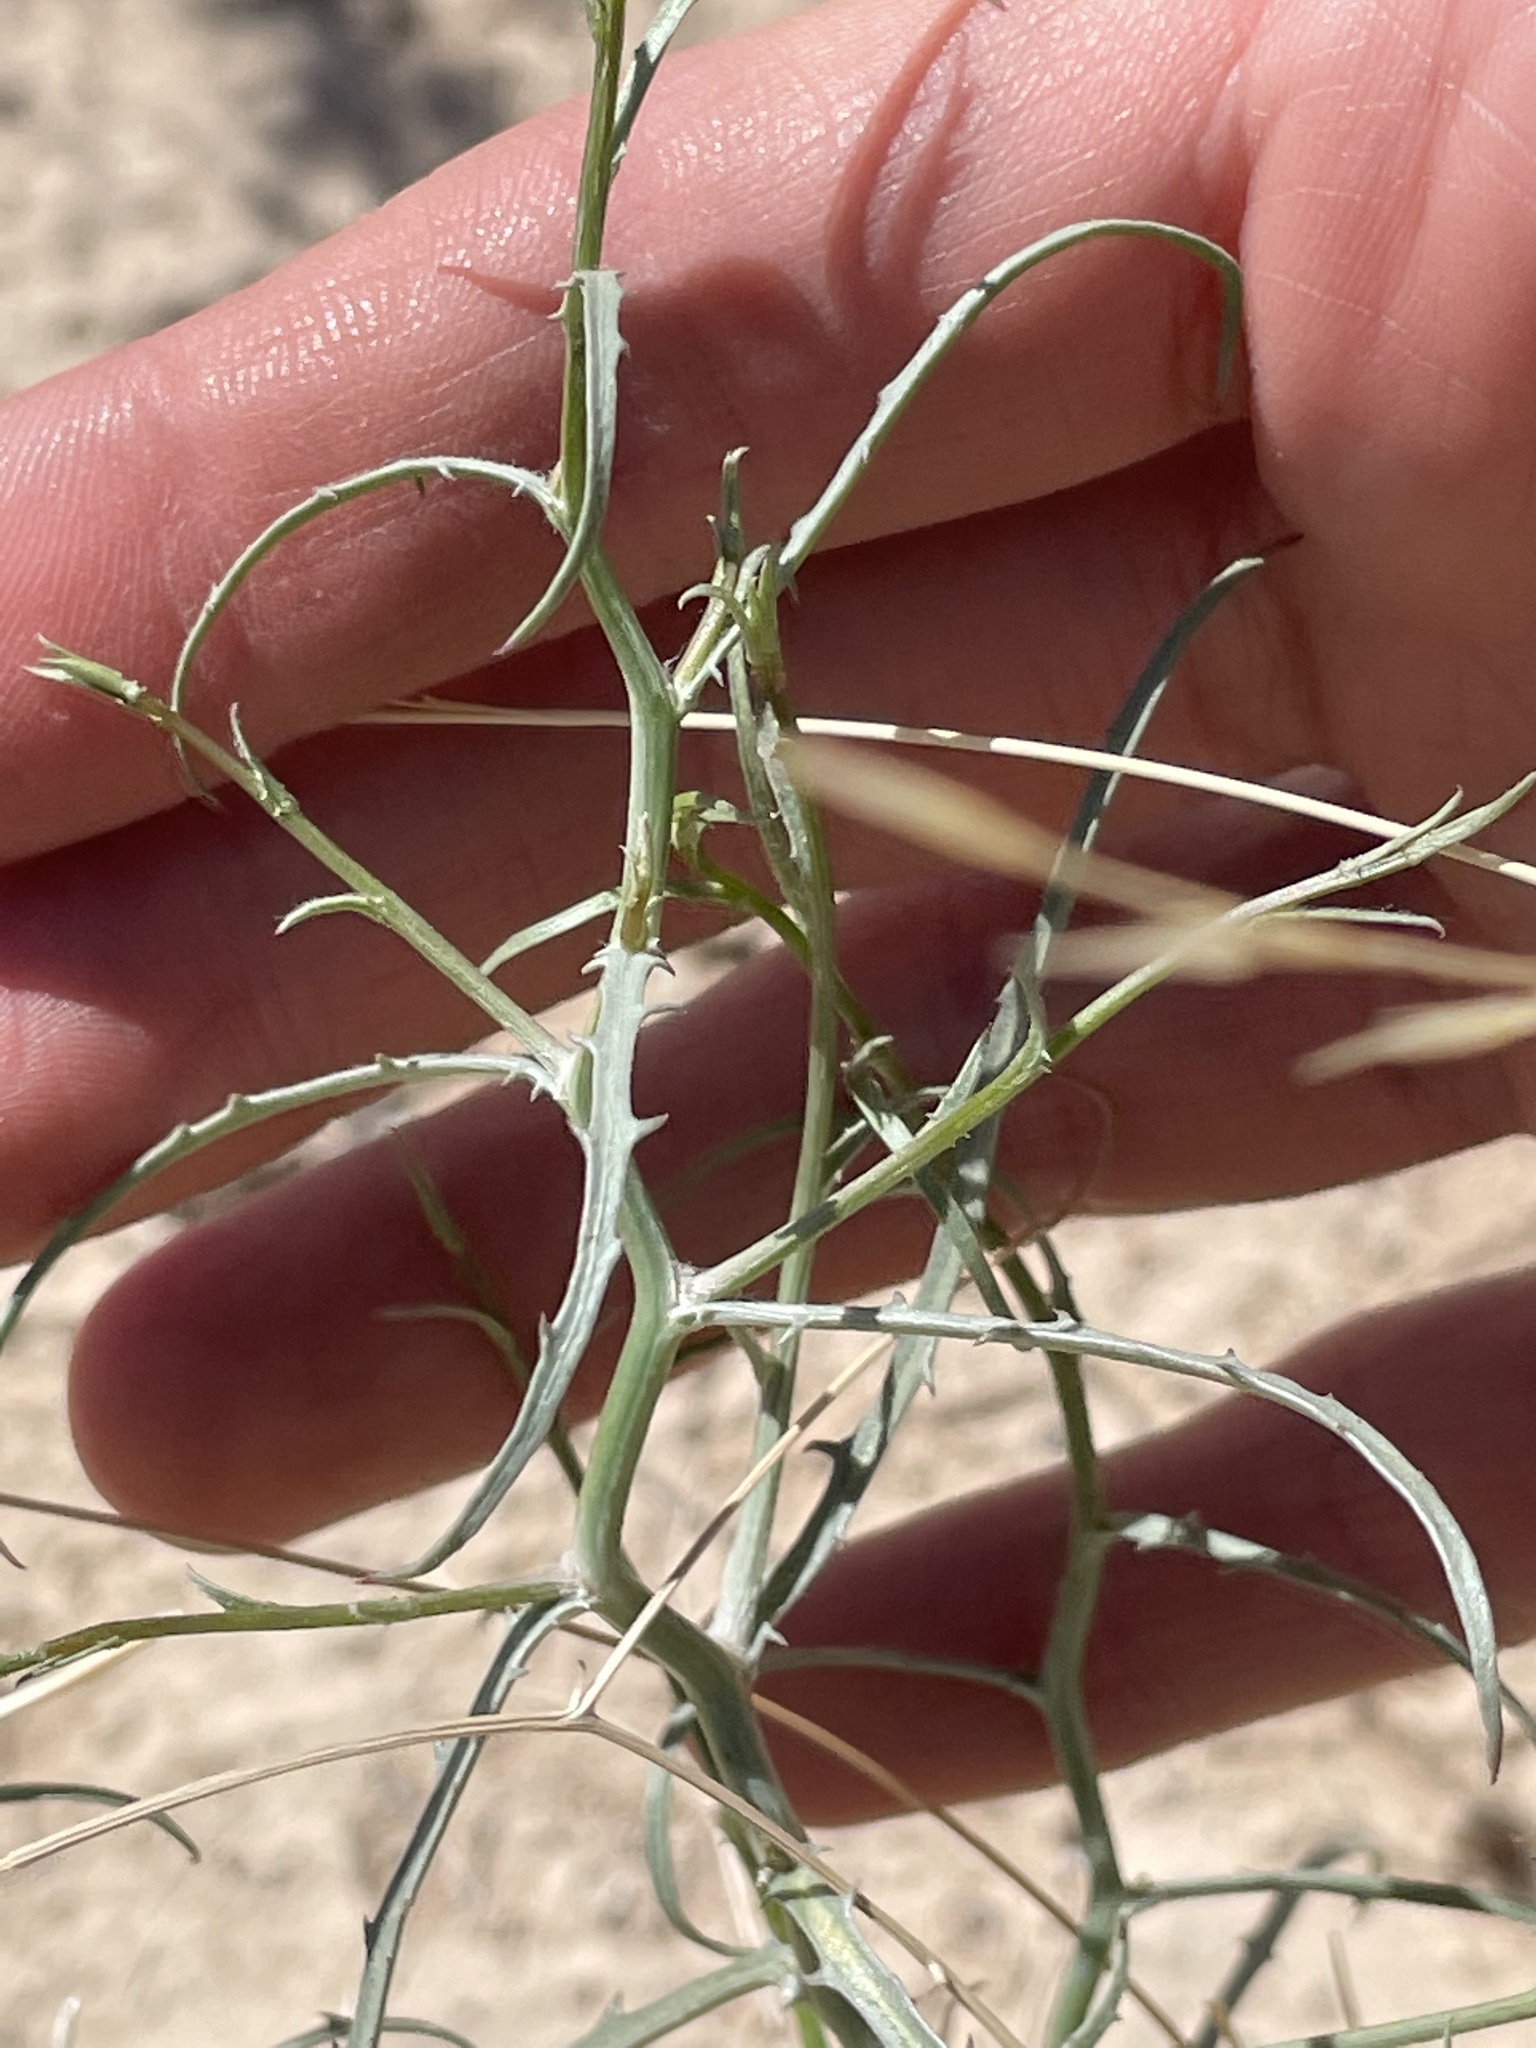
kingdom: Plantae
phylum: Tracheophyta
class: Magnoliopsida
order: Asterales
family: Asteraceae
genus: Stephanomeria
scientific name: Stephanomeria pauciflora
